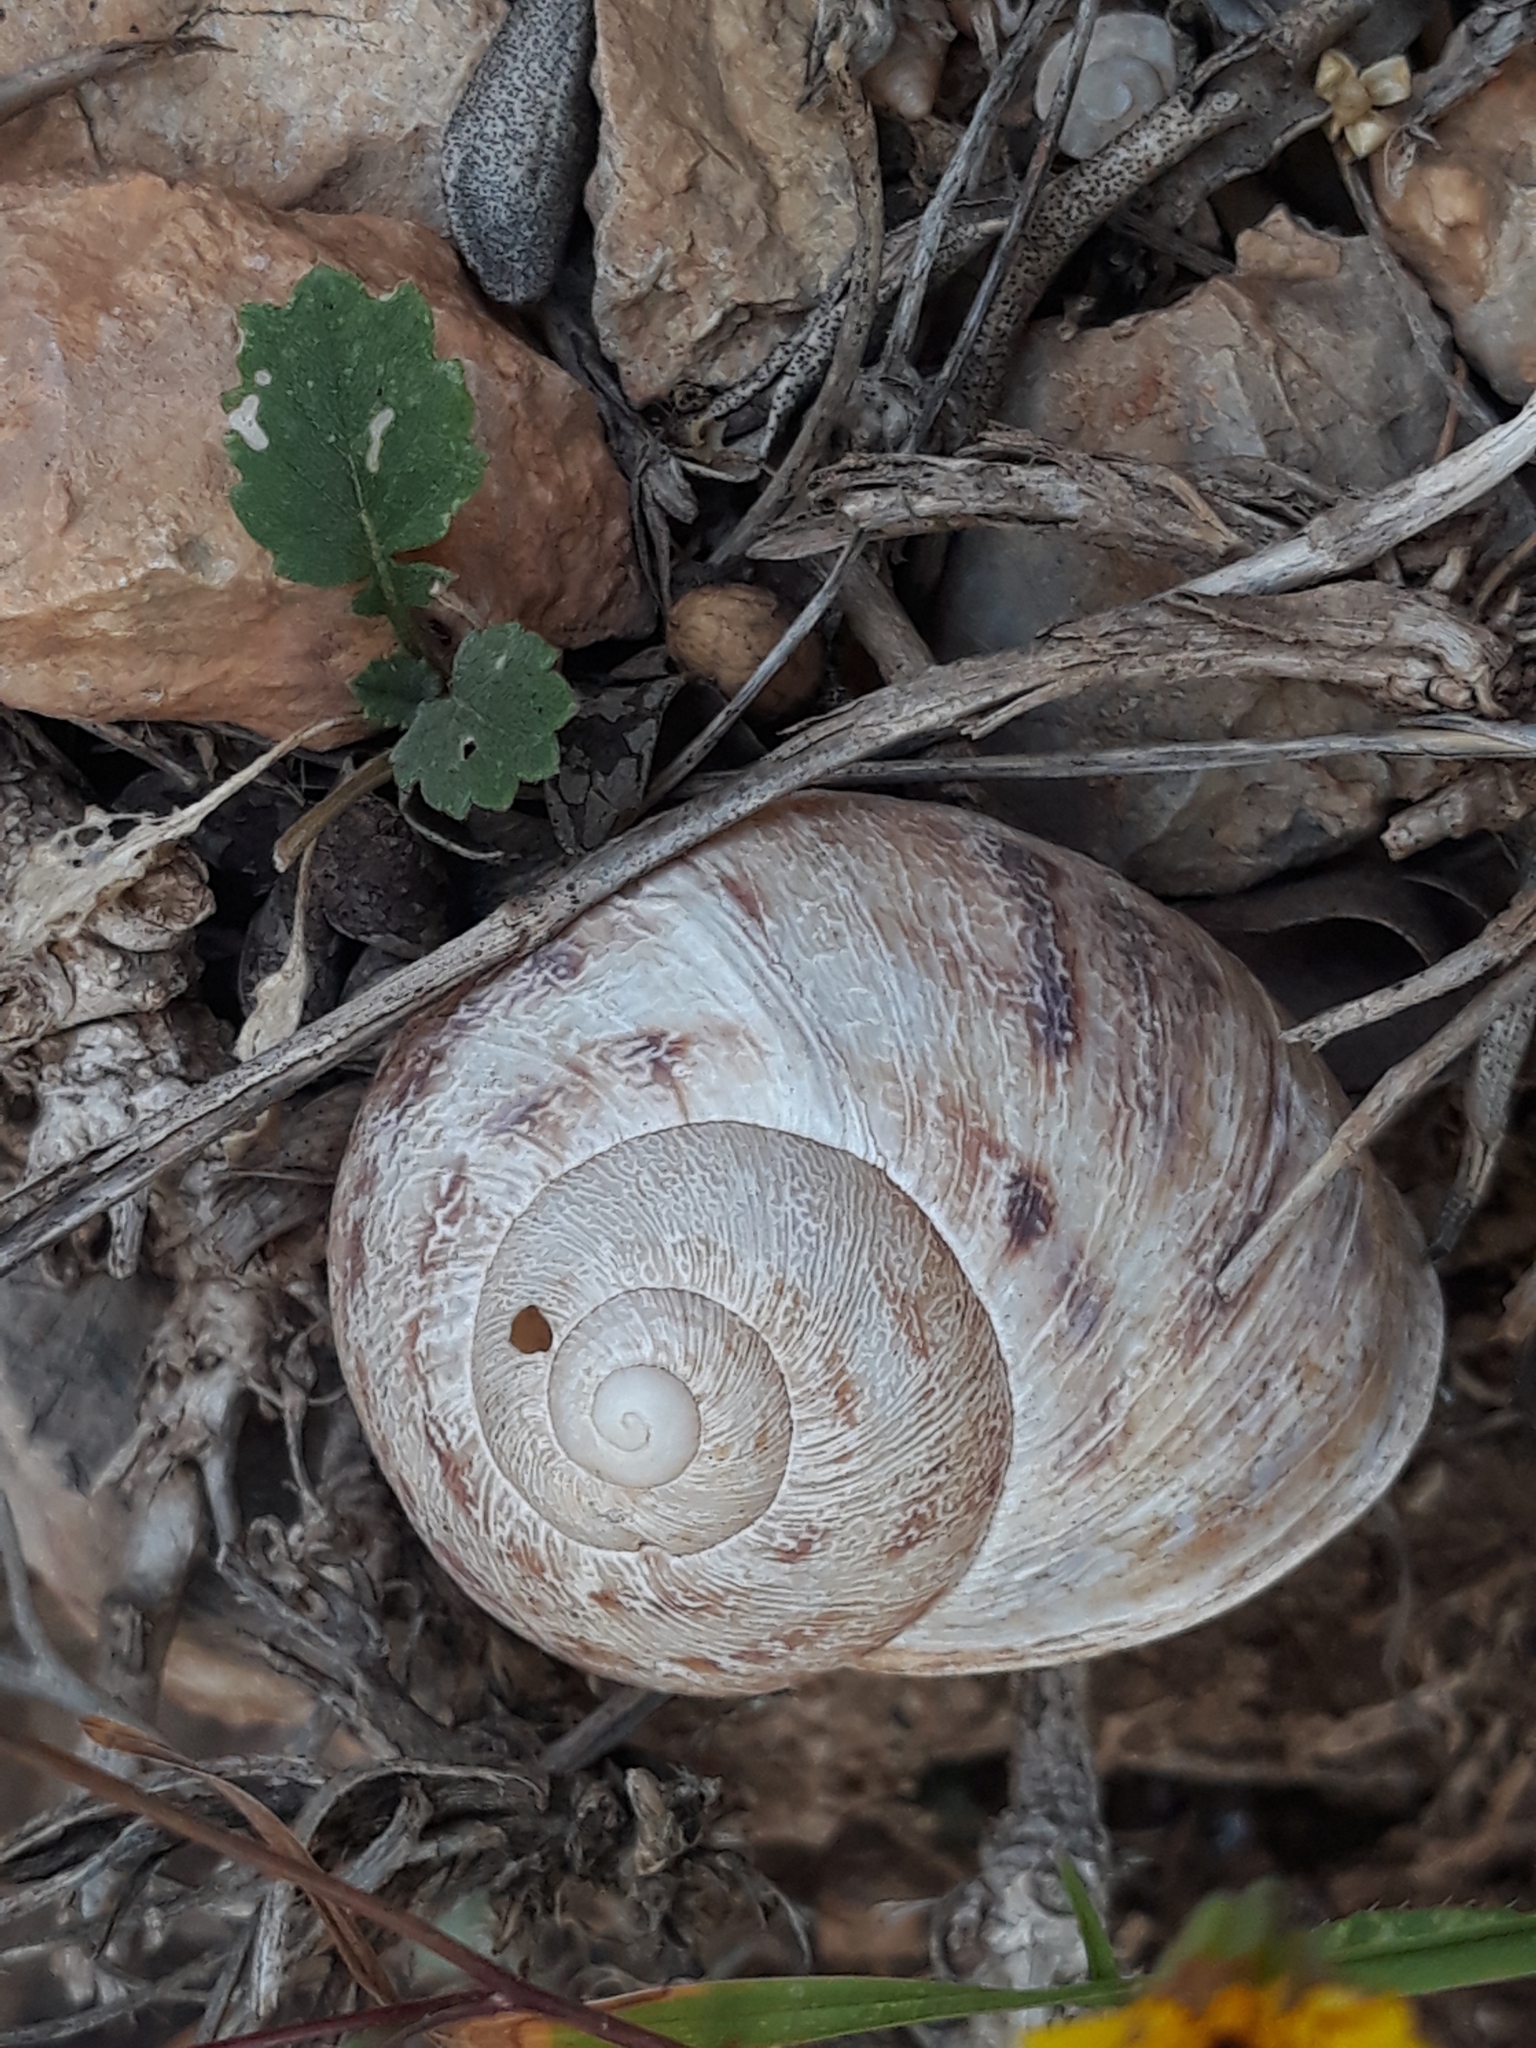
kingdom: Animalia
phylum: Mollusca
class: Gastropoda
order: Stylommatophora
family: Helicidae
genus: Cornu
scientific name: Cornu aspersum
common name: Brown garden snail
